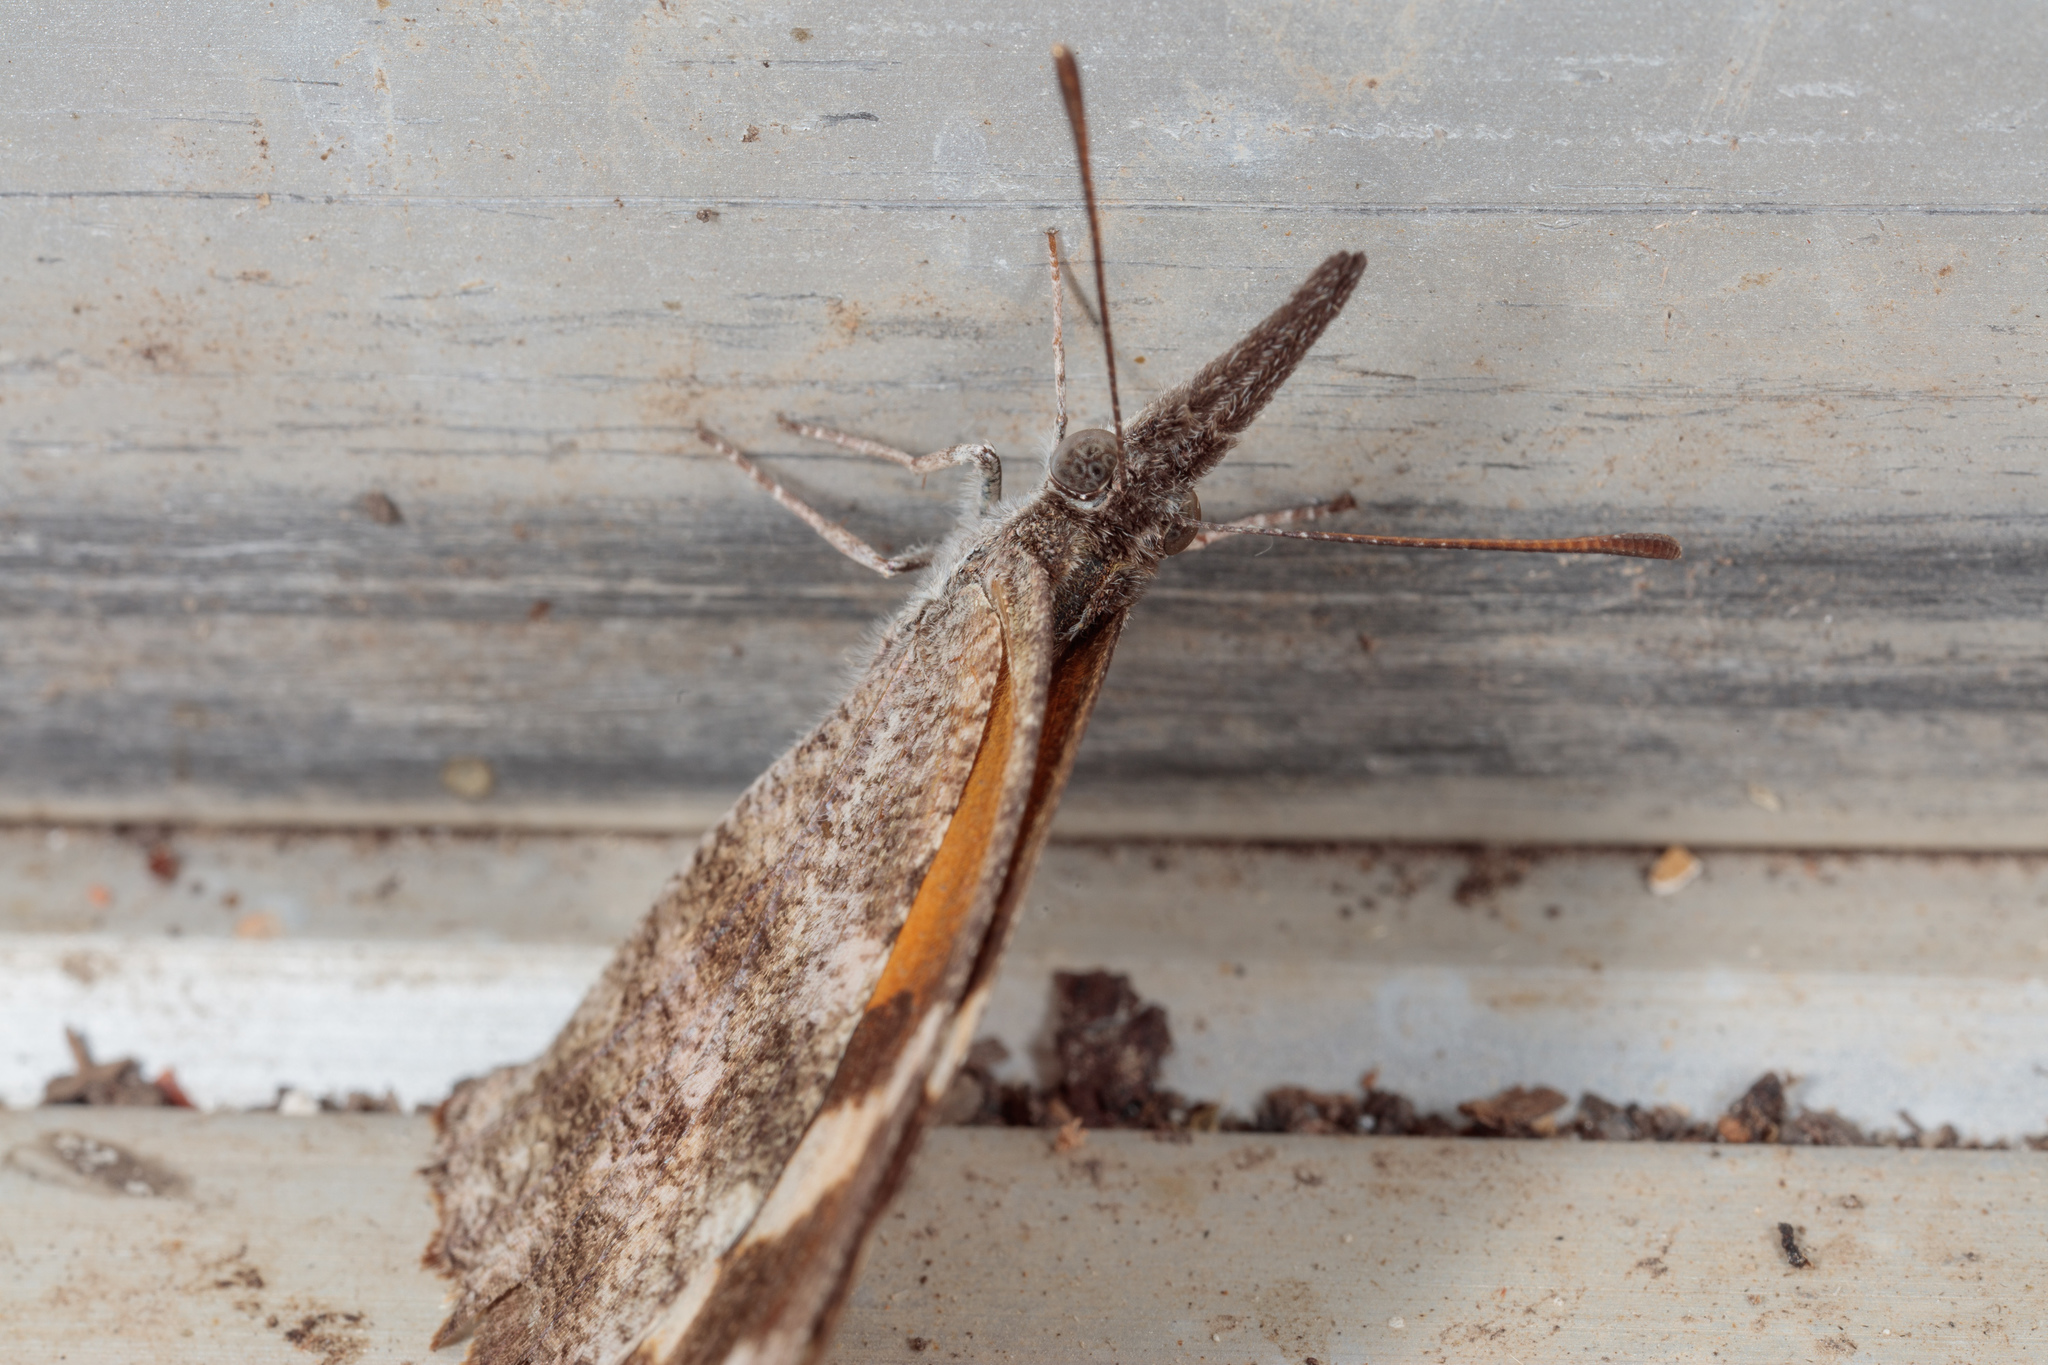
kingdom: Animalia
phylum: Arthropoda
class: Insecta
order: Lepidoptera
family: Nymphalidae
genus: Libytheana
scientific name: Libytheana carinenta
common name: American snout
